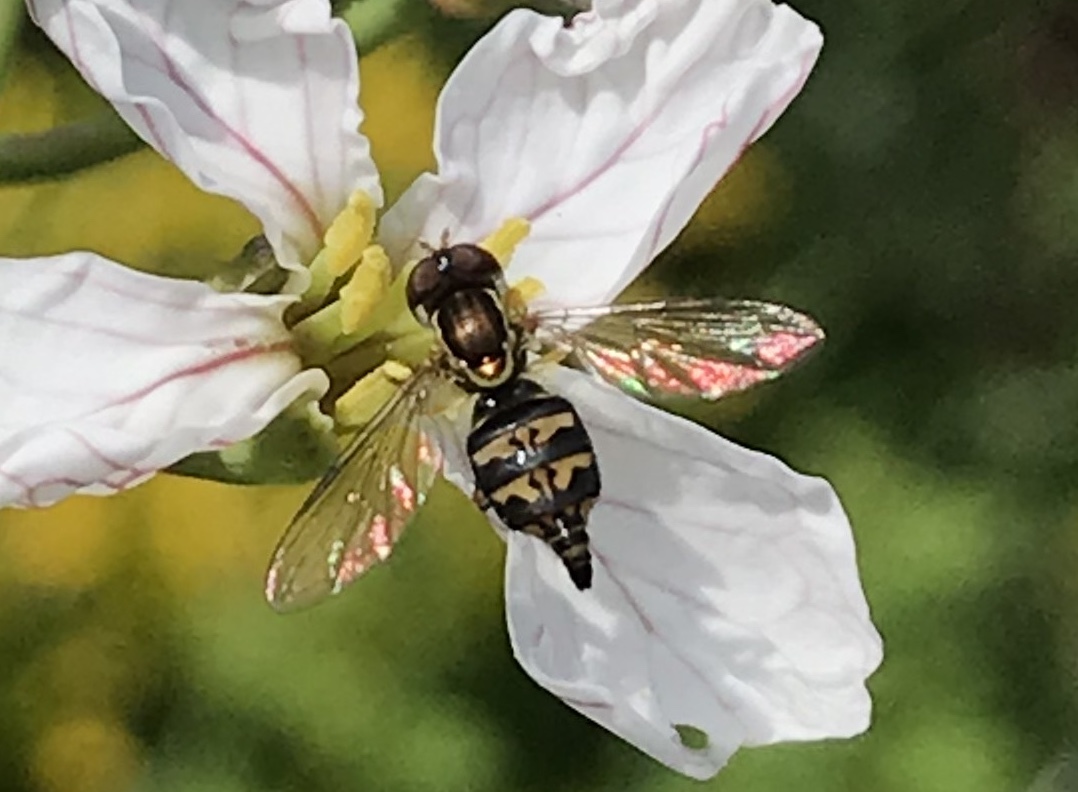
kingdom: Animalia
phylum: Arthropoda
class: Insecta
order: Diptera
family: Syrphidae
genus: Toxomerus
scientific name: Toxomerus occidentalis
